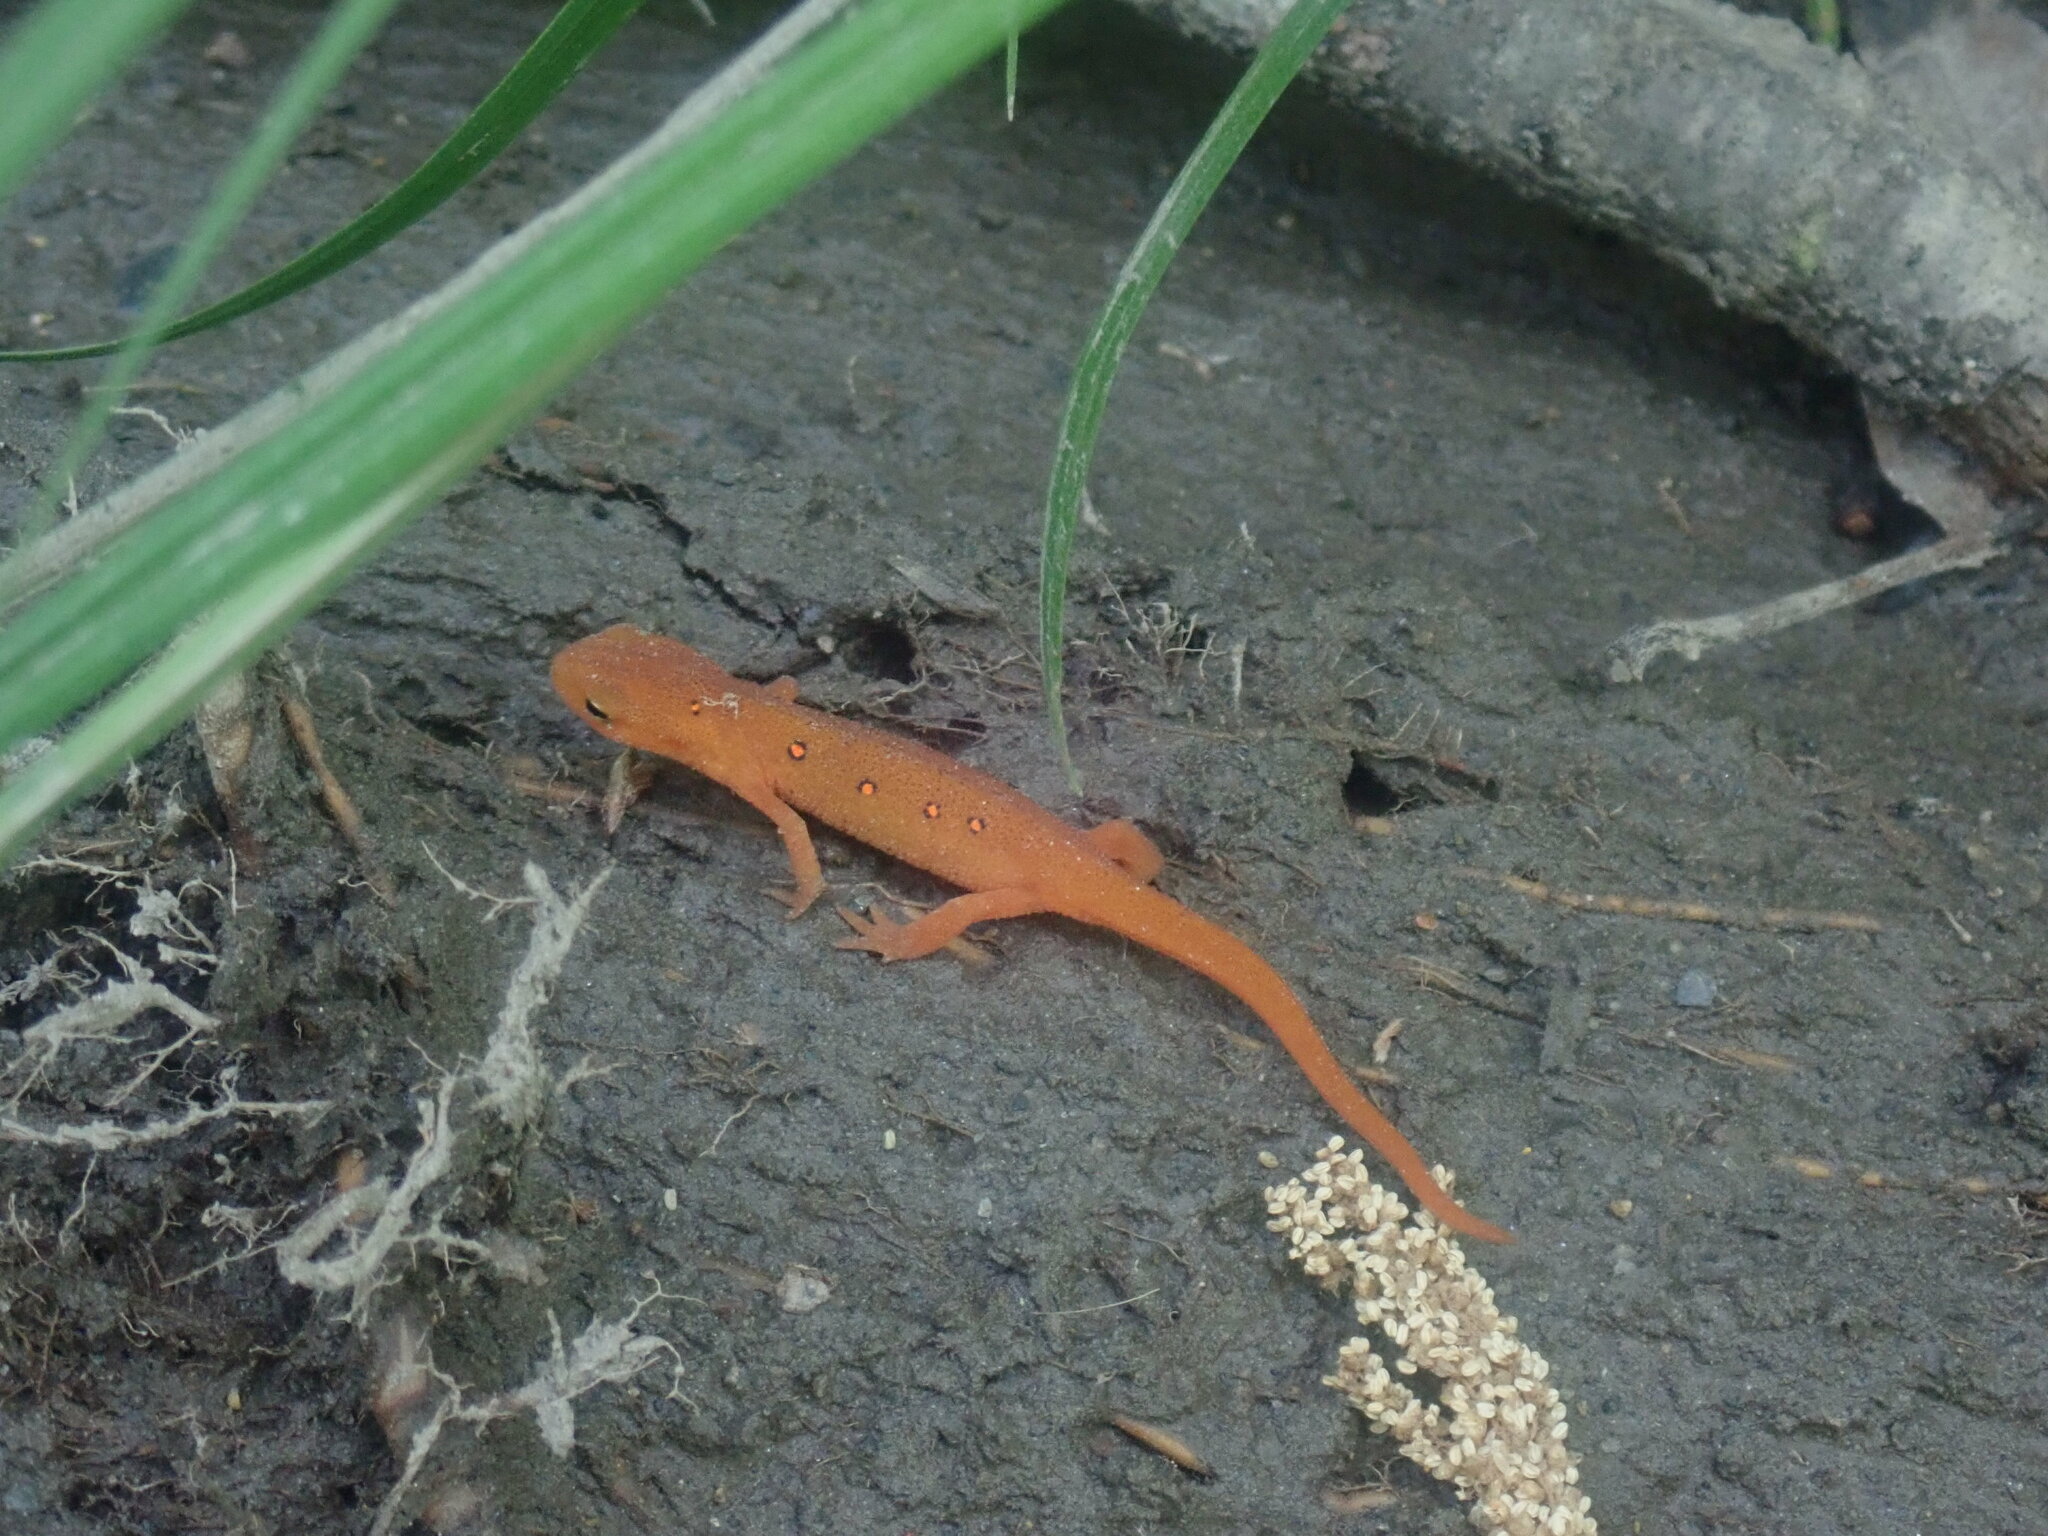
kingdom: Animalia
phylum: Chordata
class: Amphibia
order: Caudata
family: Salamandridae
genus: Notophthalmus
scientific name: Notophthalmus viridescens
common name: Eastern newt
